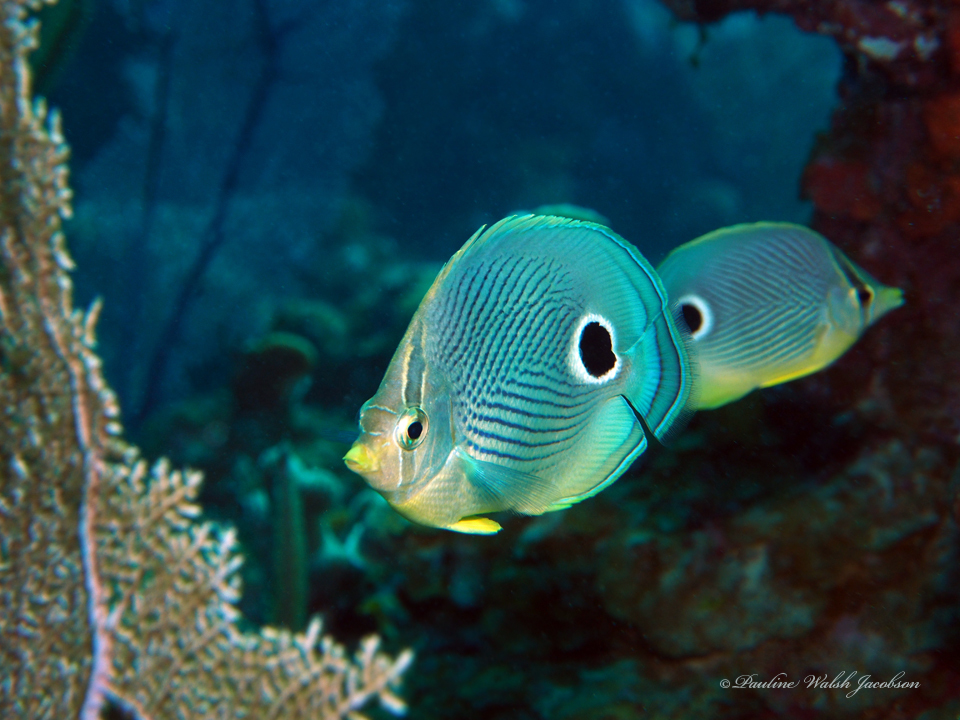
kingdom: Animalia
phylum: Chordata
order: Perciformes
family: Chaetodontidae
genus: Chaetodon
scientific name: Chaetodon capistratus
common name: Kete
